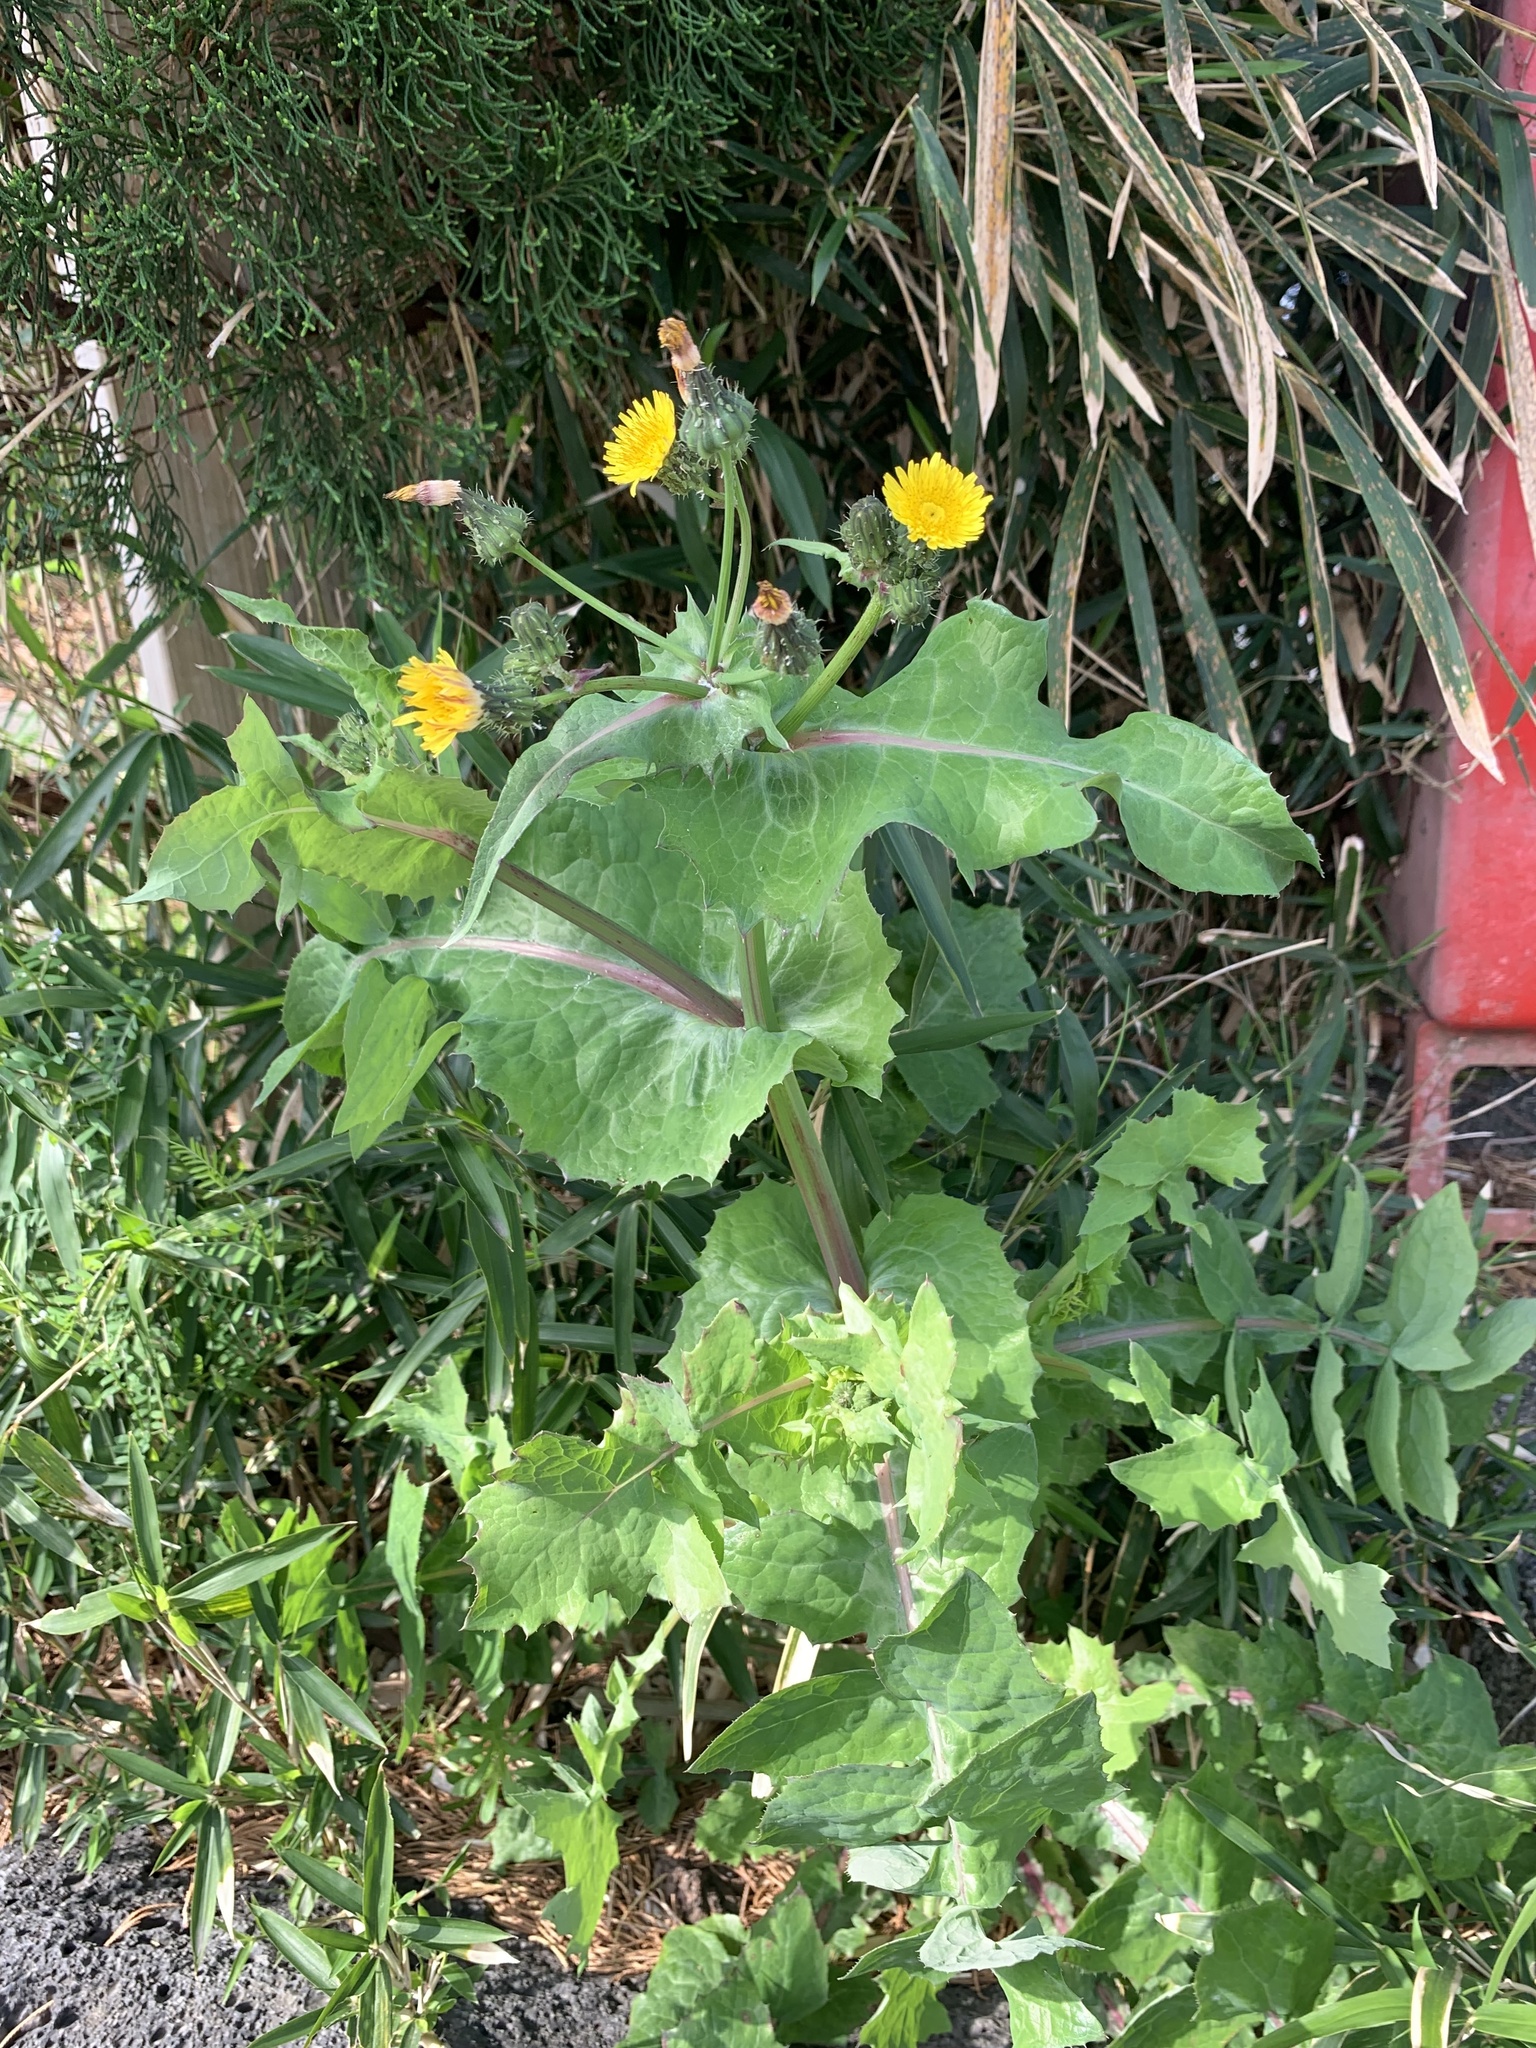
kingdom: Plantae
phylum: Tracheophyta
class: Magnoliopsida
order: Asterales
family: Asteraceae
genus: Sonchus
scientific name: Sonchus oleraceus
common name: Common sowthistle
